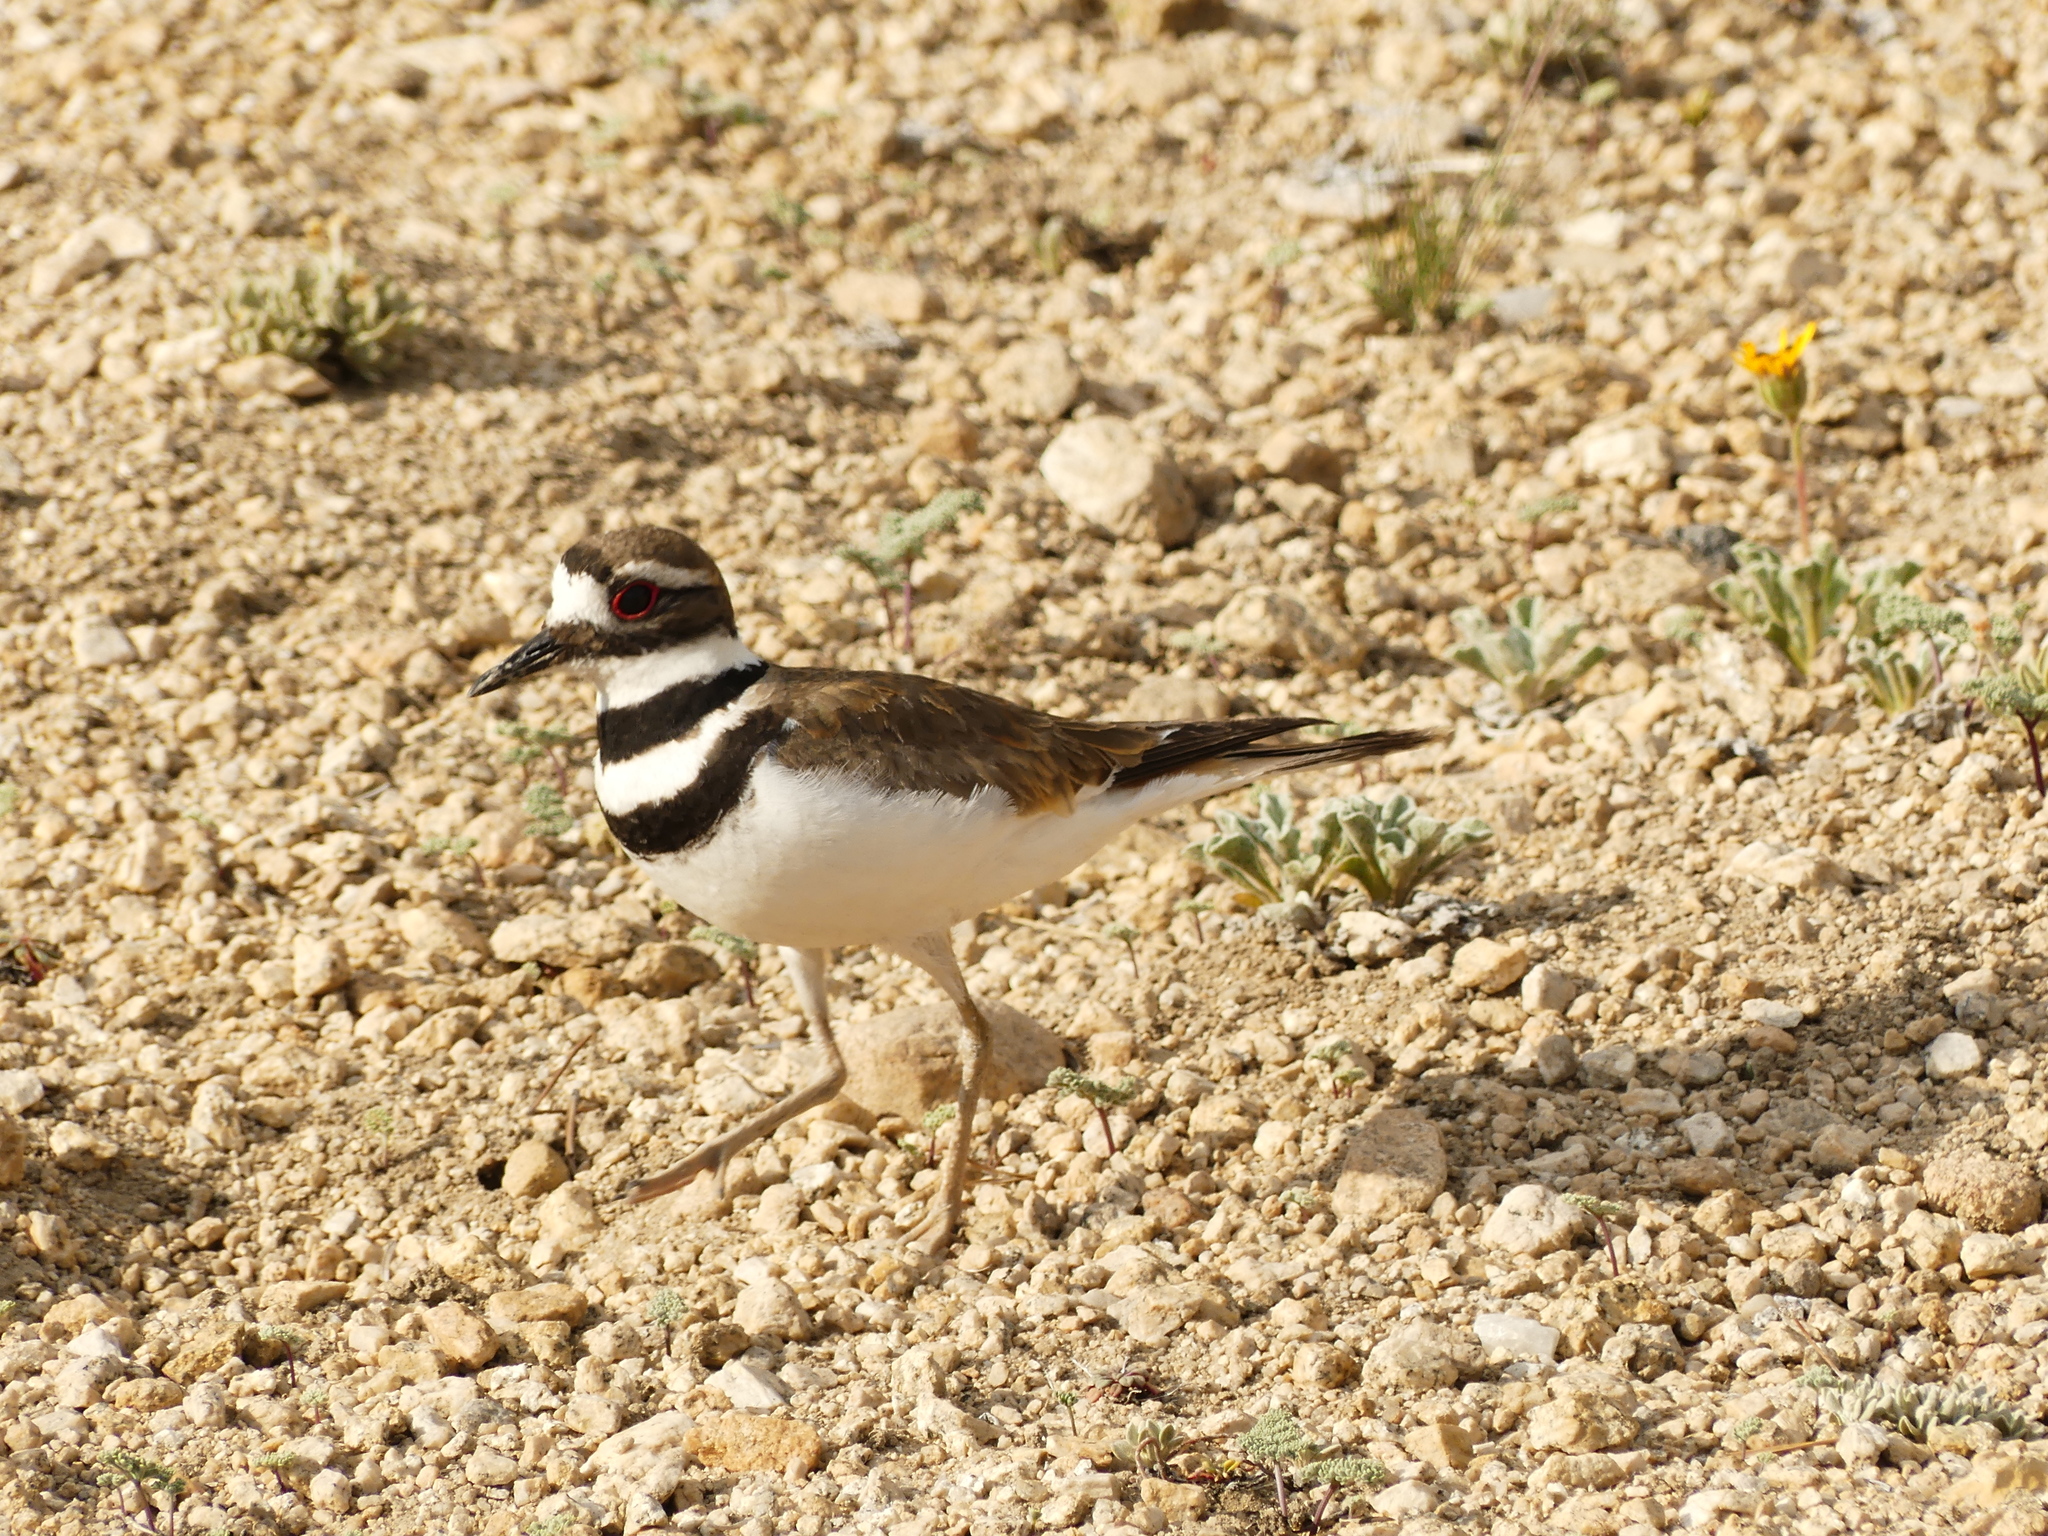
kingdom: Animalia
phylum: Chordata
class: Aves
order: Charadriiformes
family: Charadriidae
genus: Charadrius
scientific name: Charadrius vociferus
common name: Killdeer
